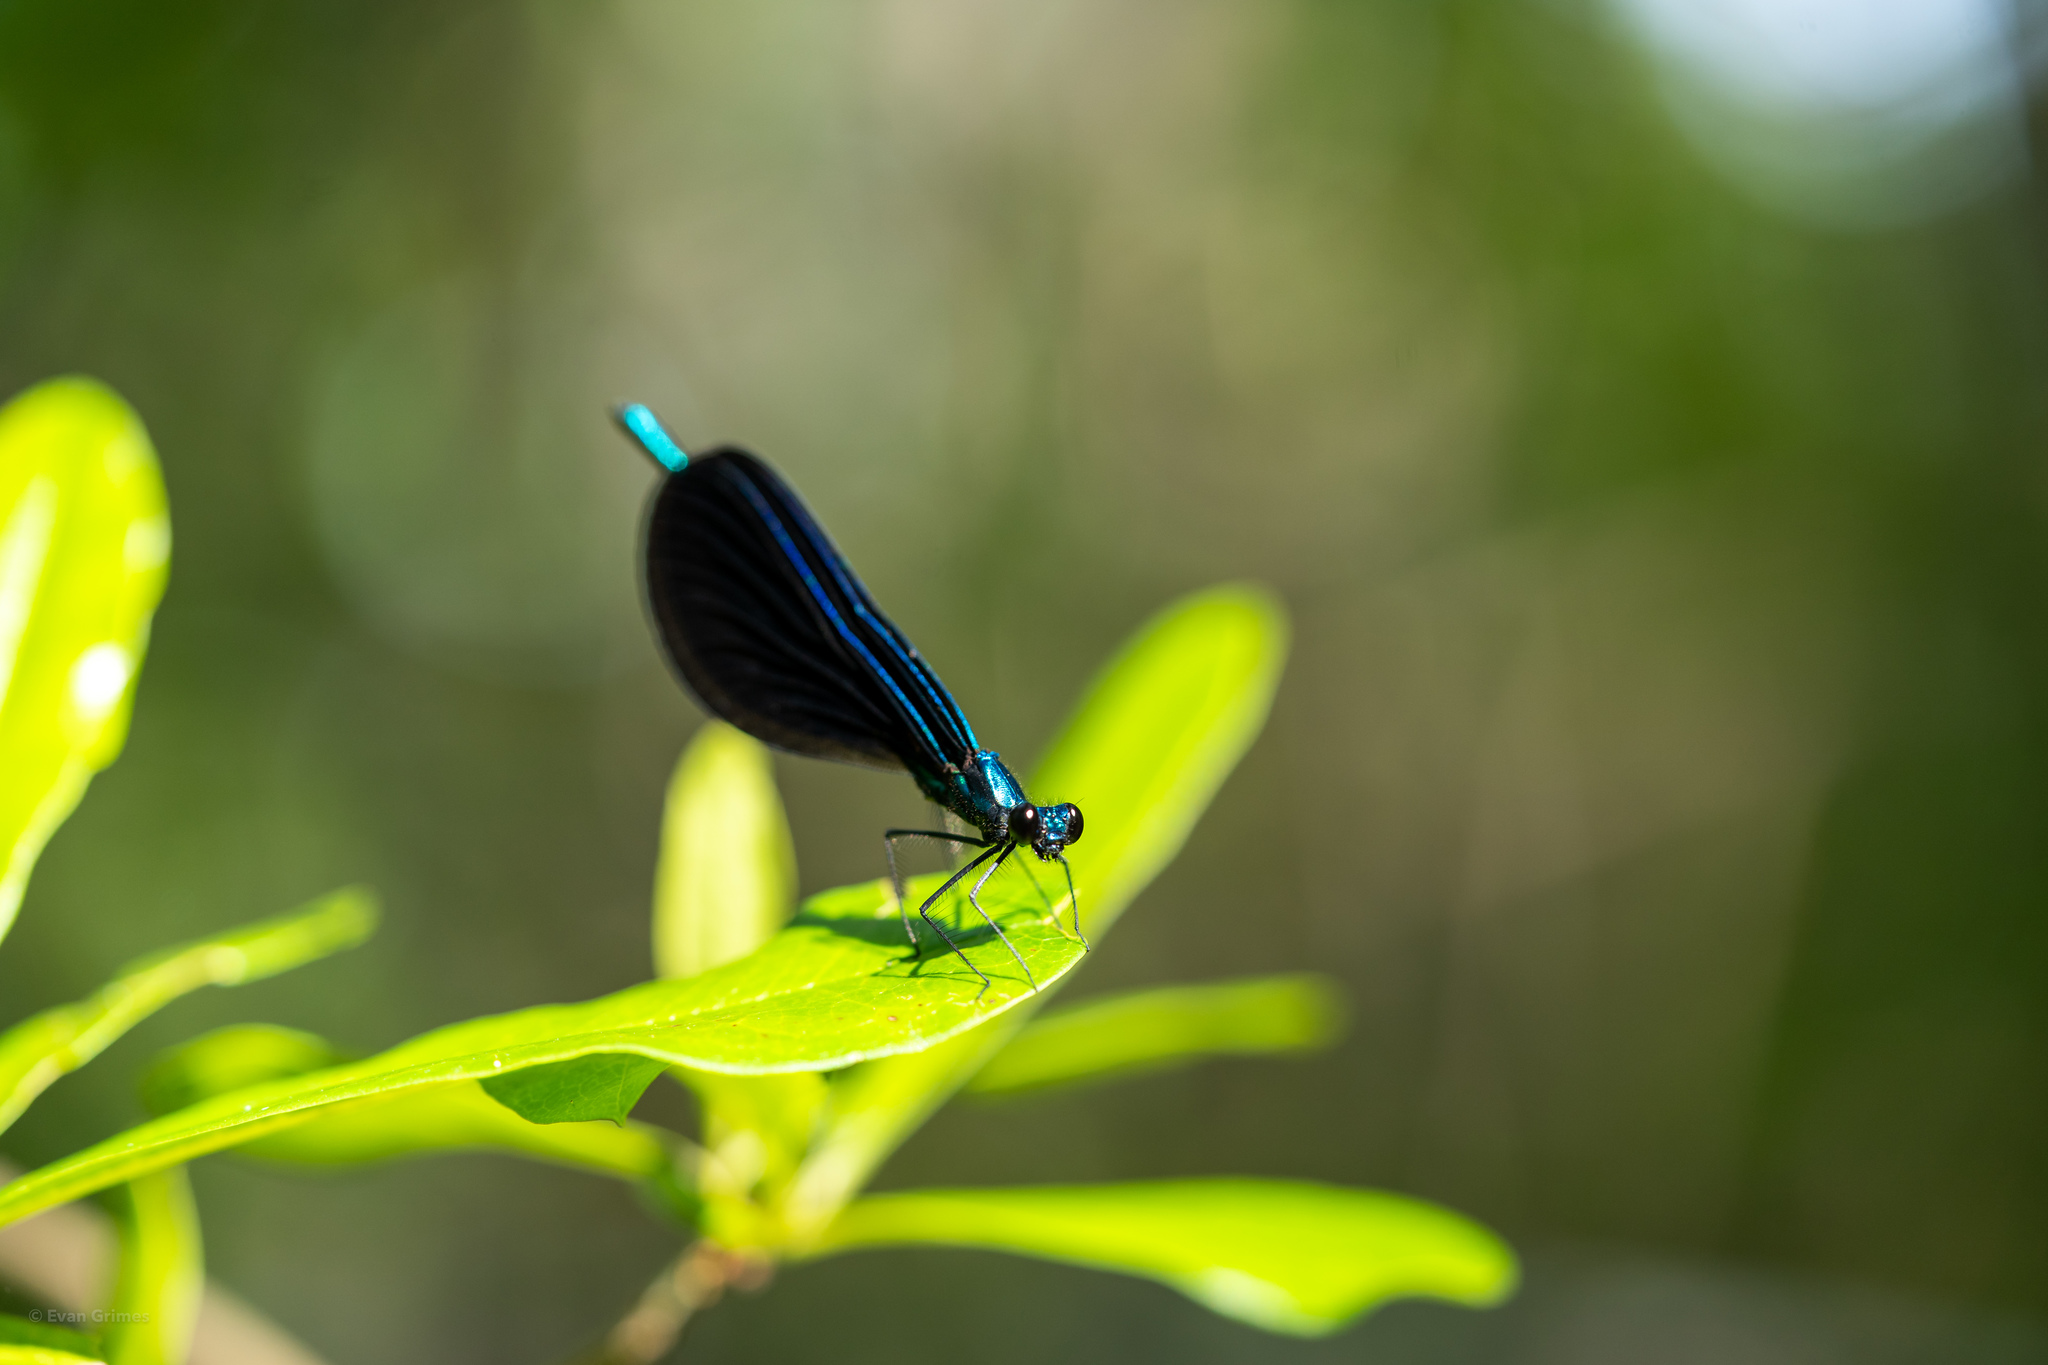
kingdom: Animalia
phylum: Arthropoda
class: Insecta
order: Odonata
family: Calopterygidae
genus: Calopteryx
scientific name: Calopteryx maculata
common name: Ebony jewelwing
